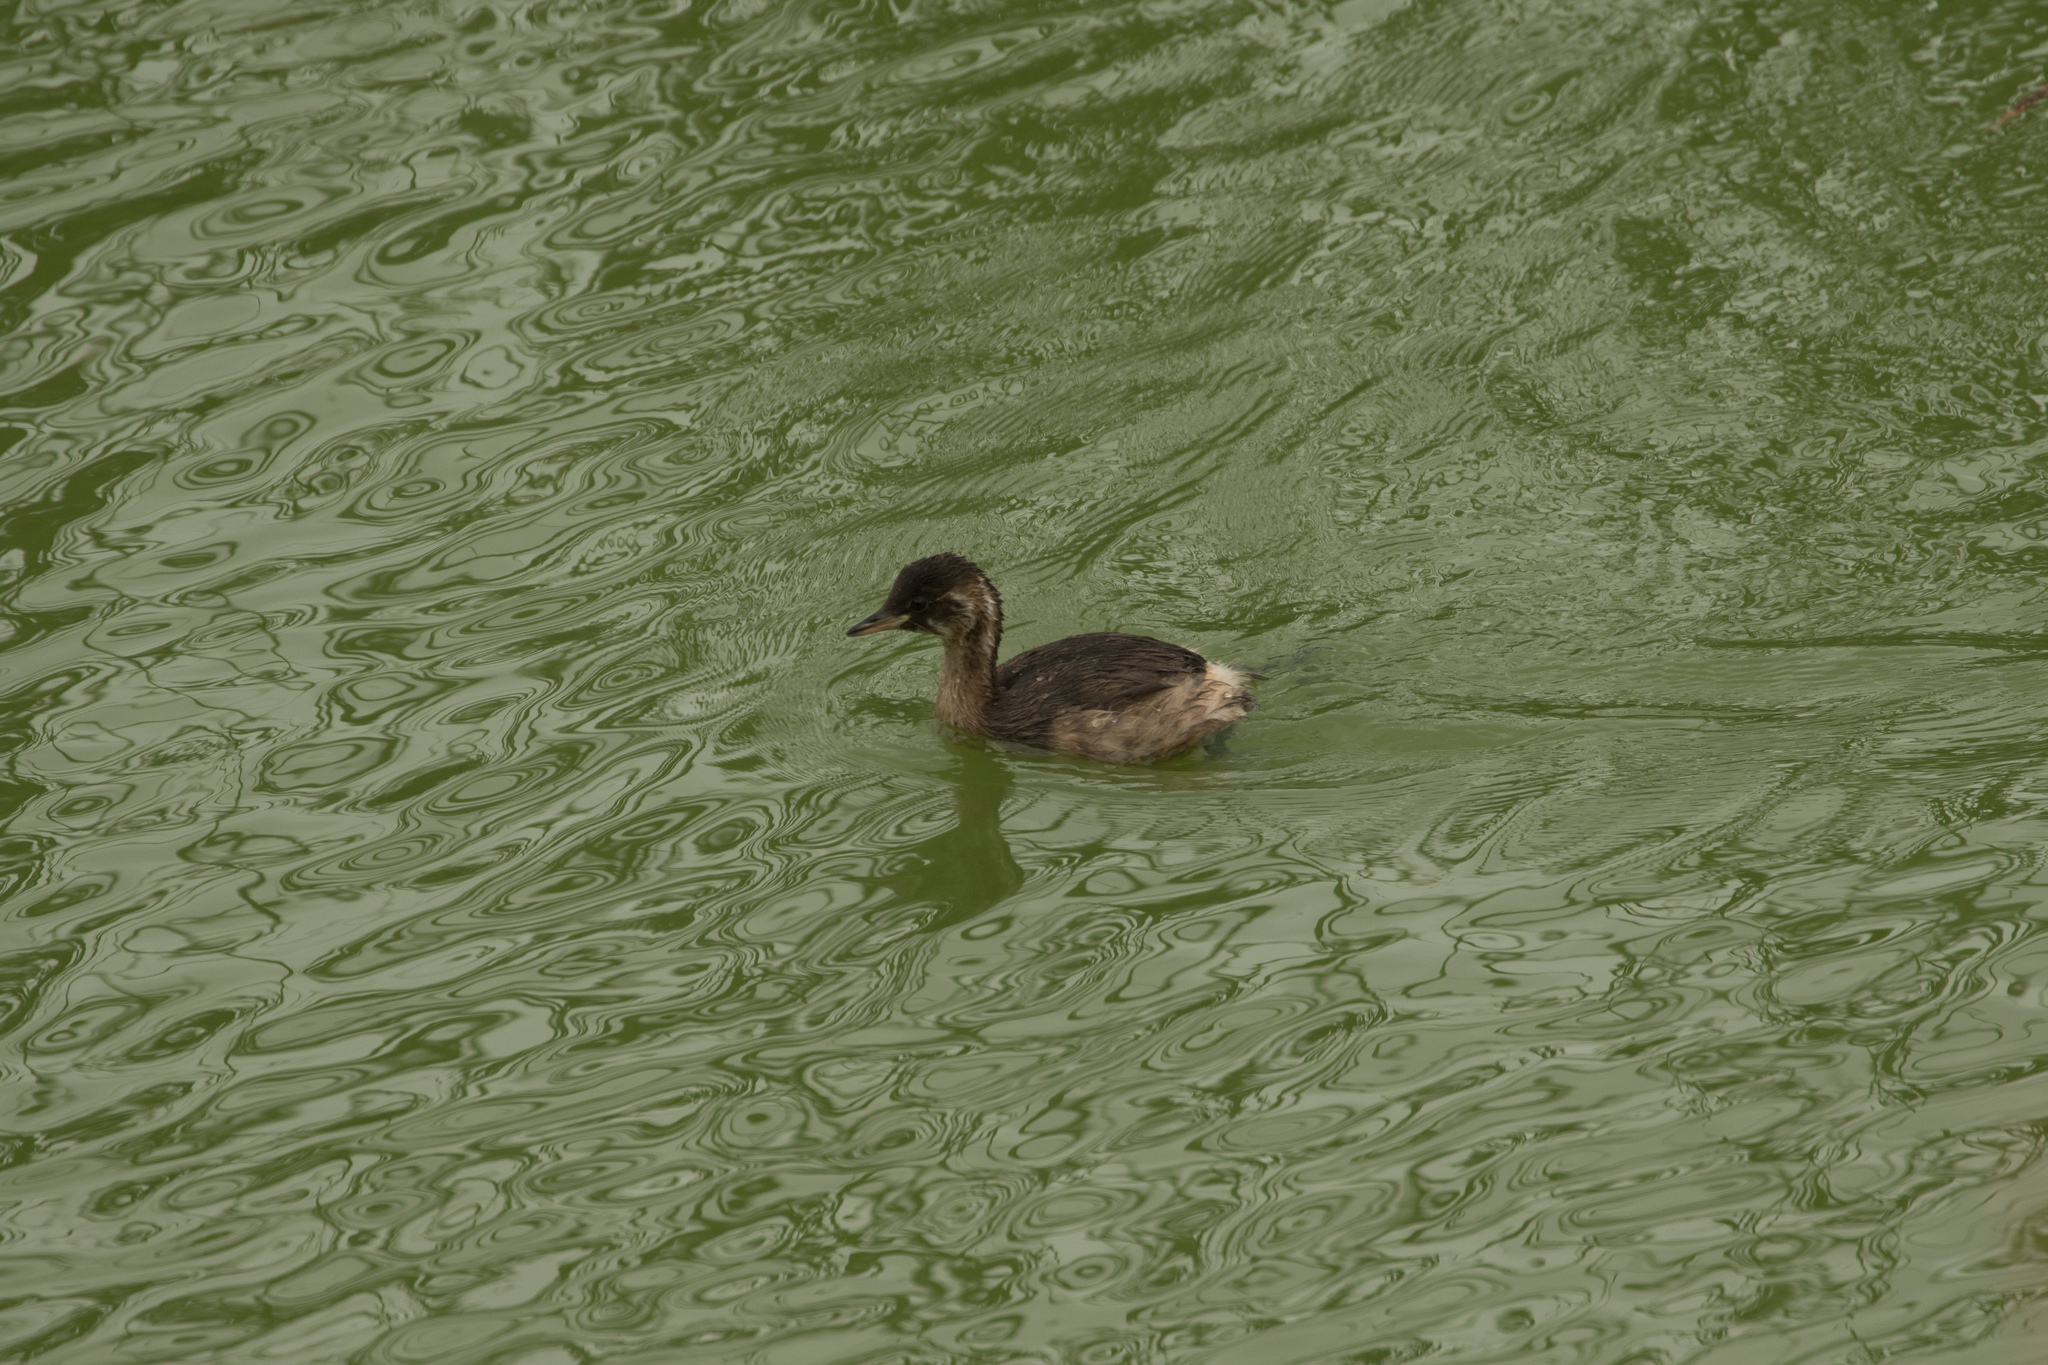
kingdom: Animalia
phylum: Chordata
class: Aves
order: Podicipediformes
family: Podicipedidae
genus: Tachybaptus
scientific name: Tachybaptus ruficollis
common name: Little grebe
